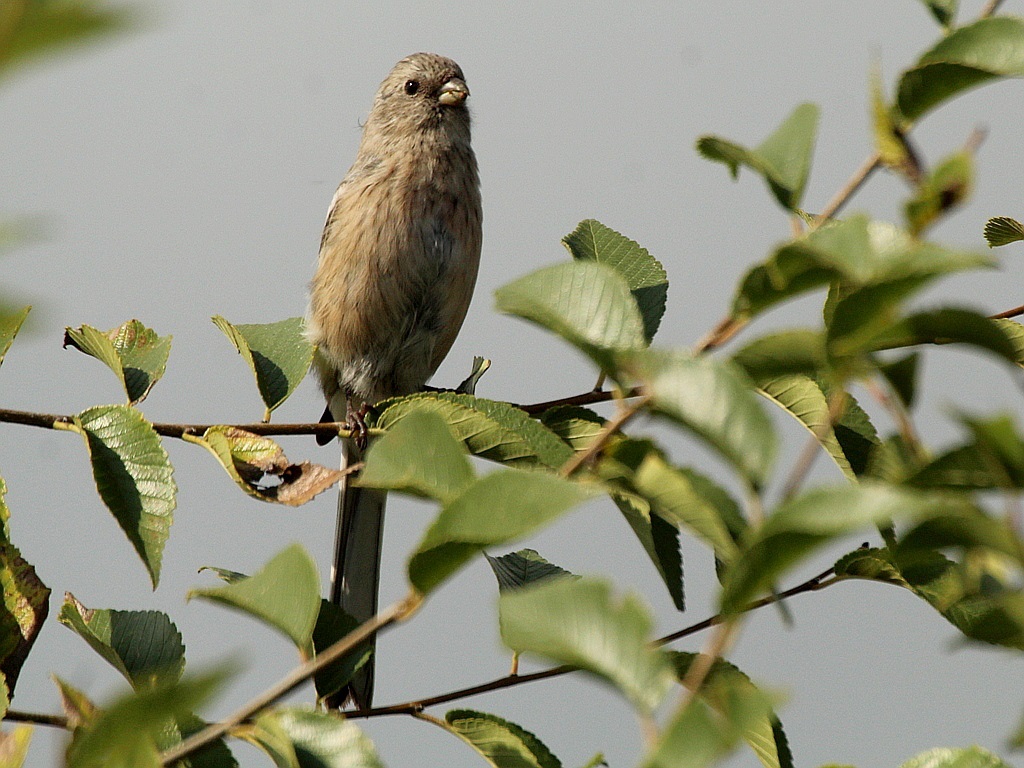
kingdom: Animalia
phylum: Chordata
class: Aves
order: Passeriformes
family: Fringillidae
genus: Carpodacus
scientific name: Carpodacus sibiricus
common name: Long-tailed rosefinch
